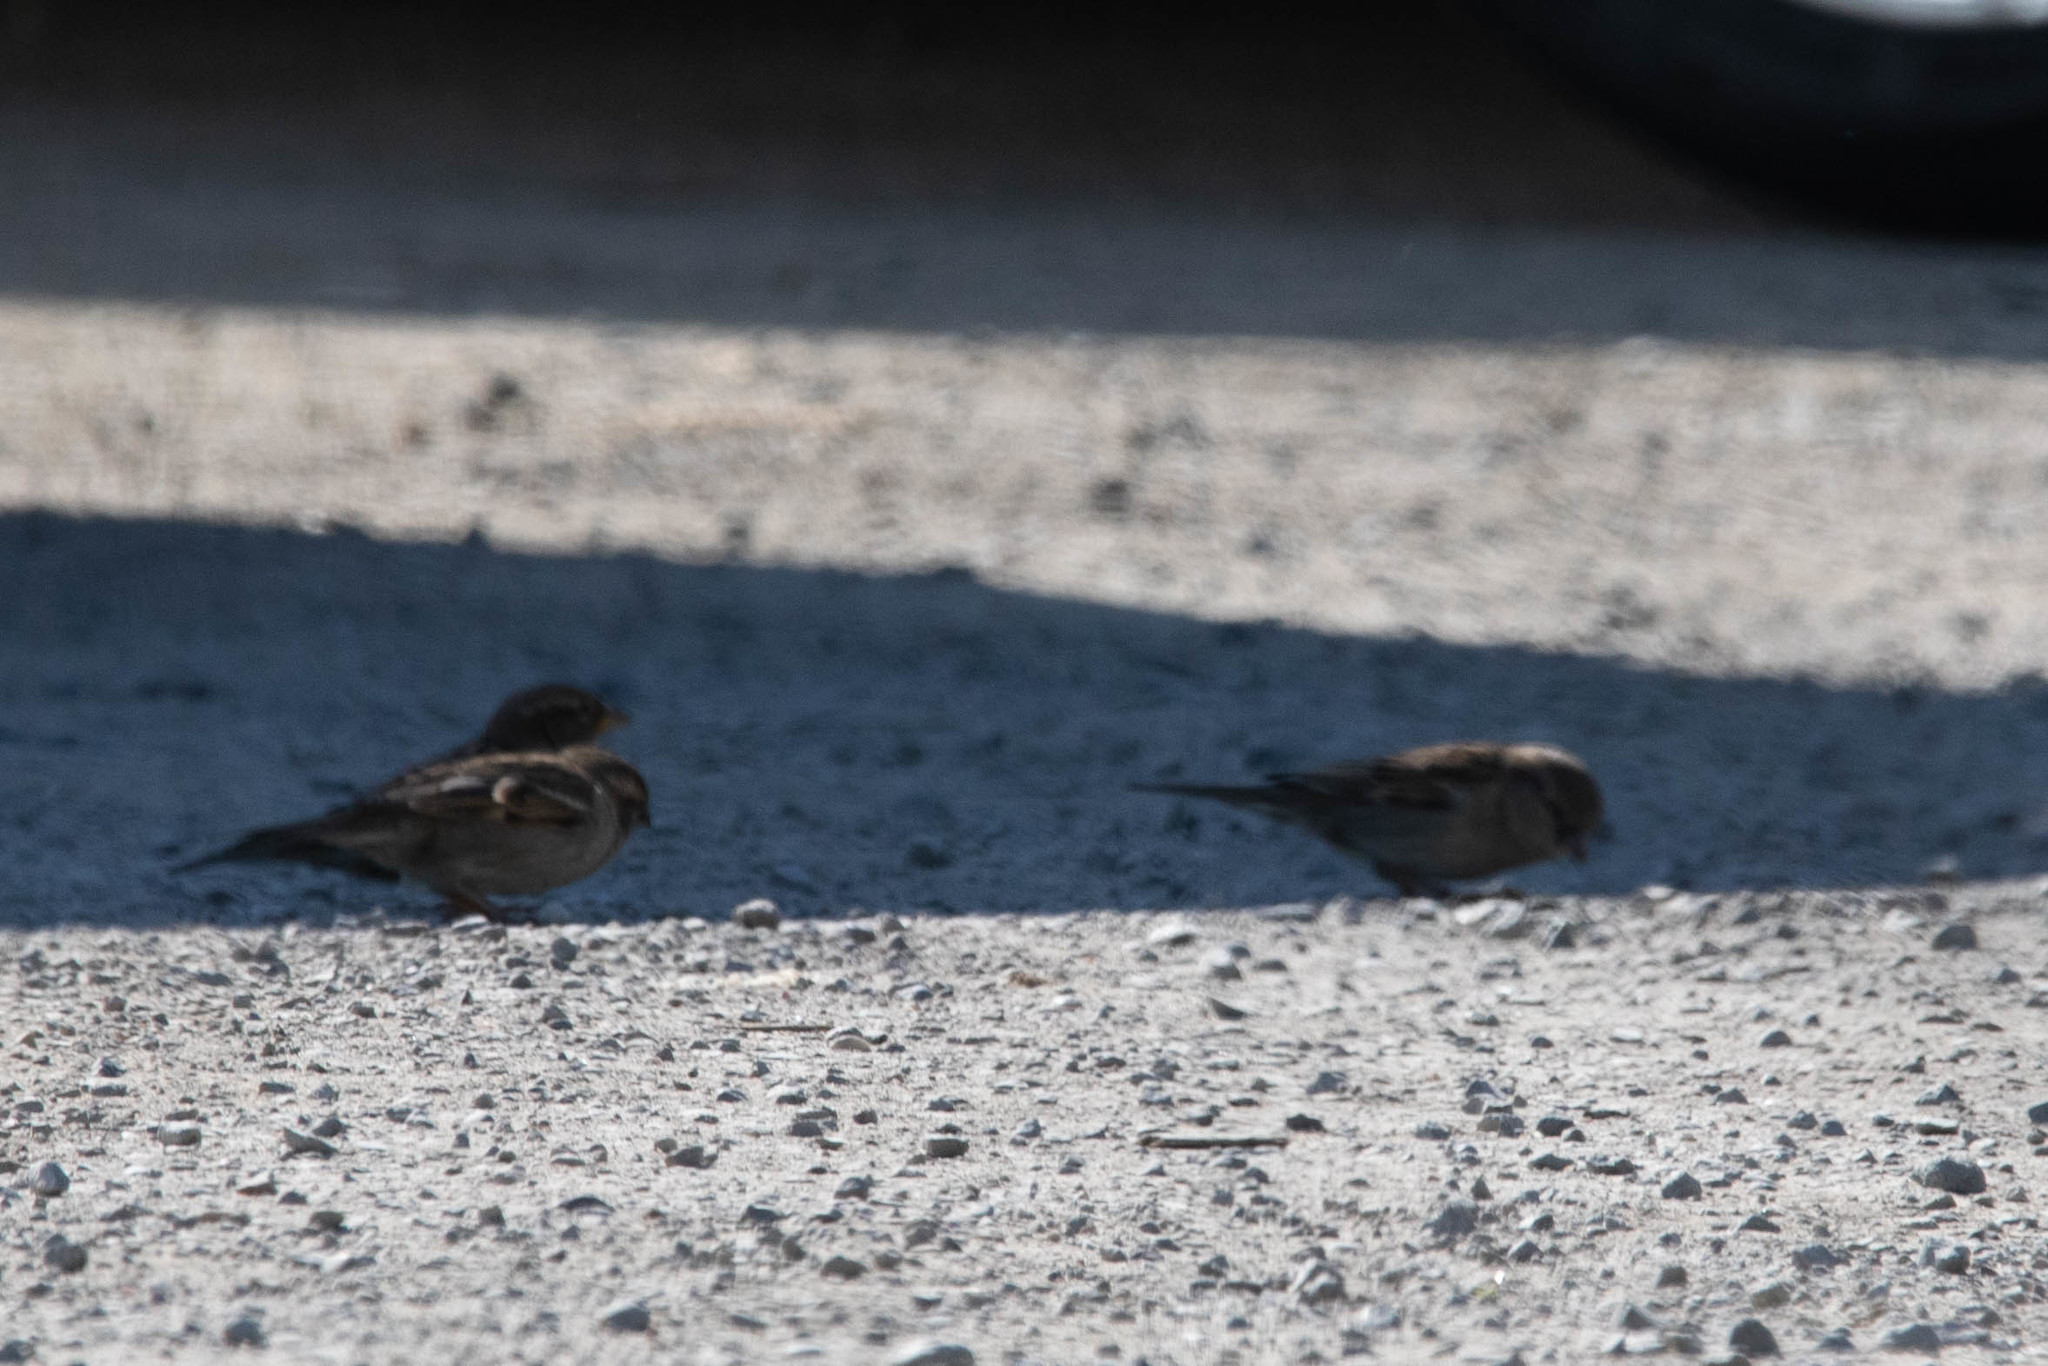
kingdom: Animalia
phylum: Chordata
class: Aves
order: Passeriformes
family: Passeridae
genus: Passer
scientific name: Passer domesticus
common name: House sparrow
